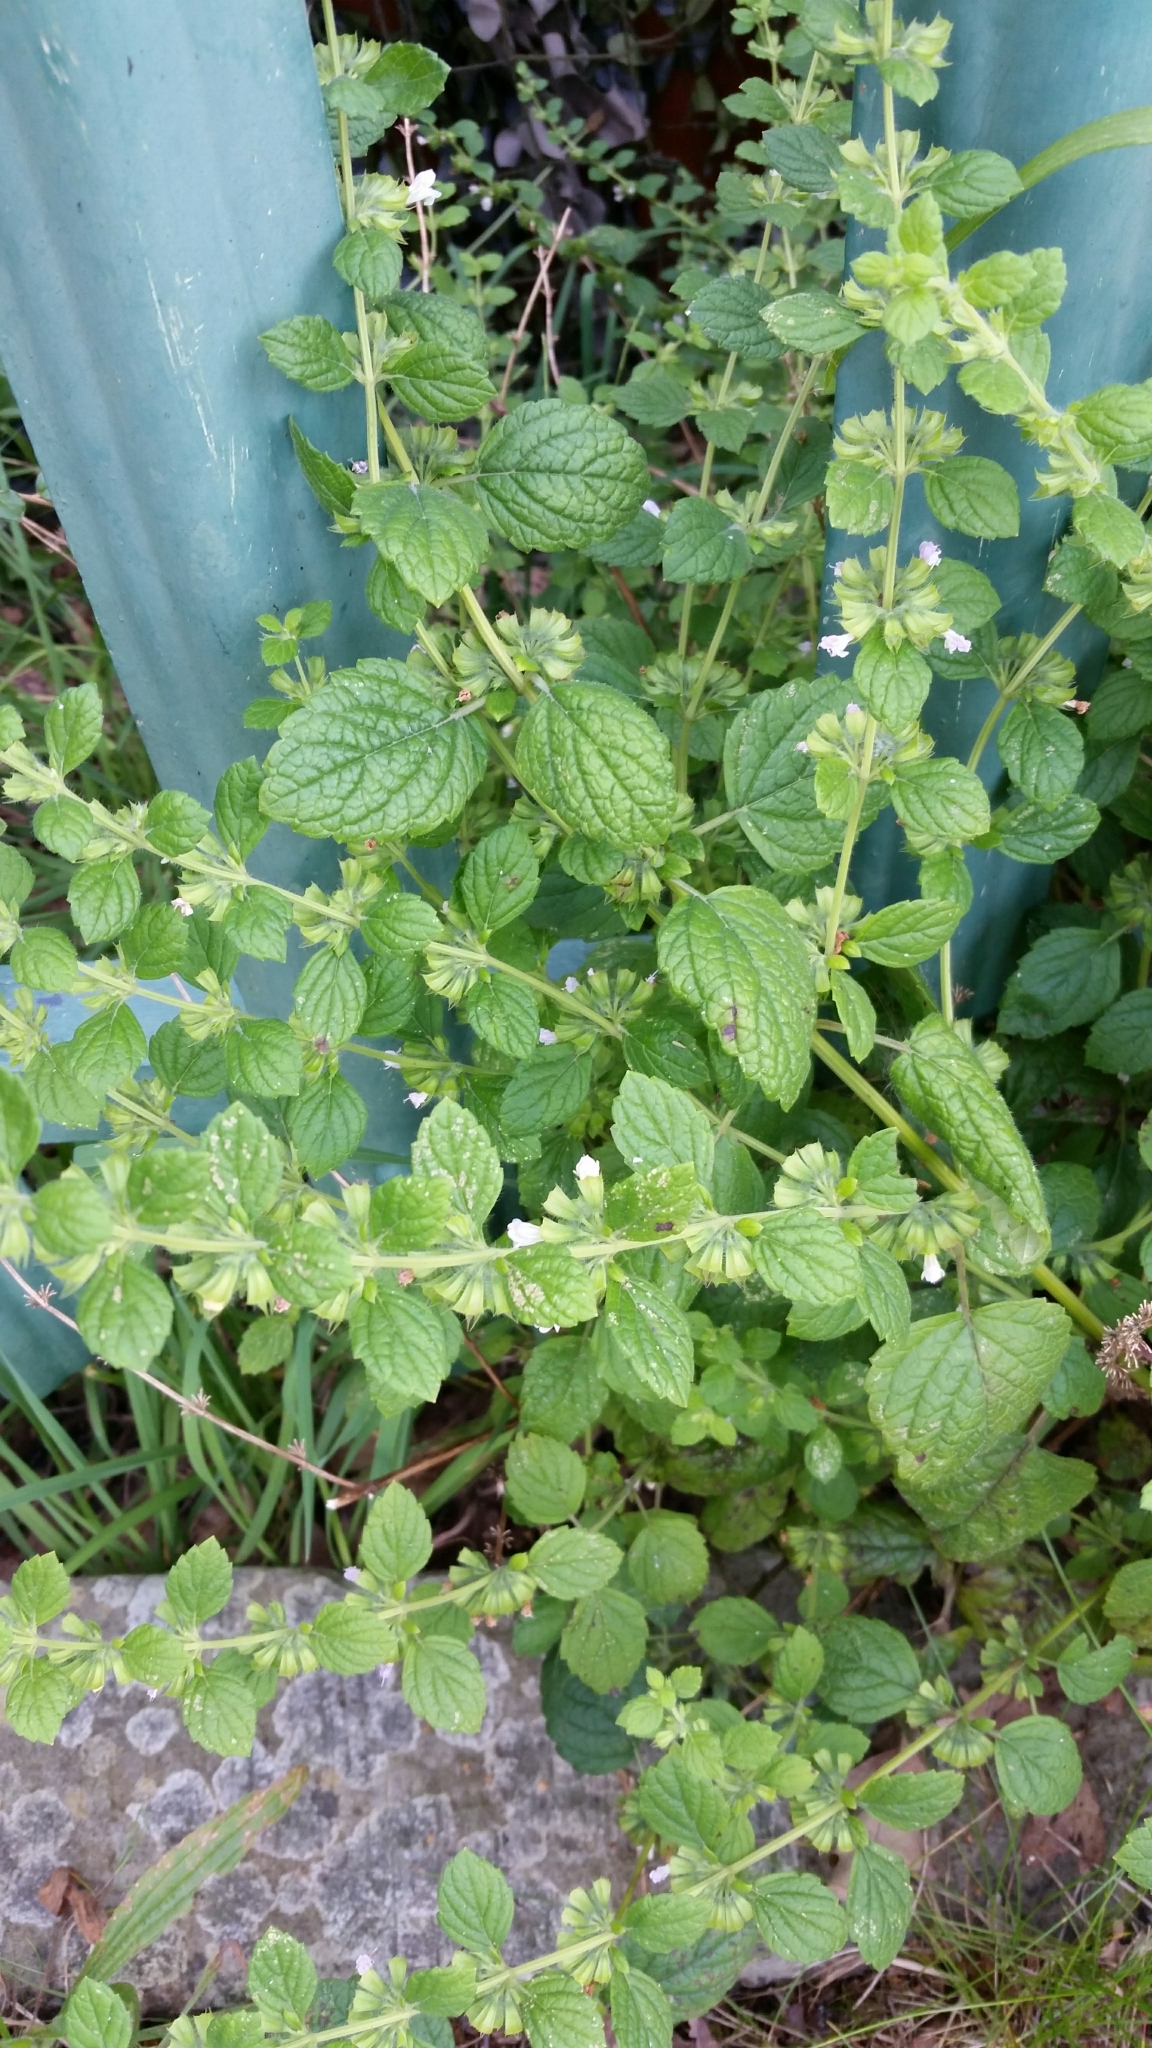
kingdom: Plantae
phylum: Tracheophyta
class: Magnoliopsida
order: Lamiales
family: Lamiaceae
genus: Melissa
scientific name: Melissa officinalis
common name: Balm
